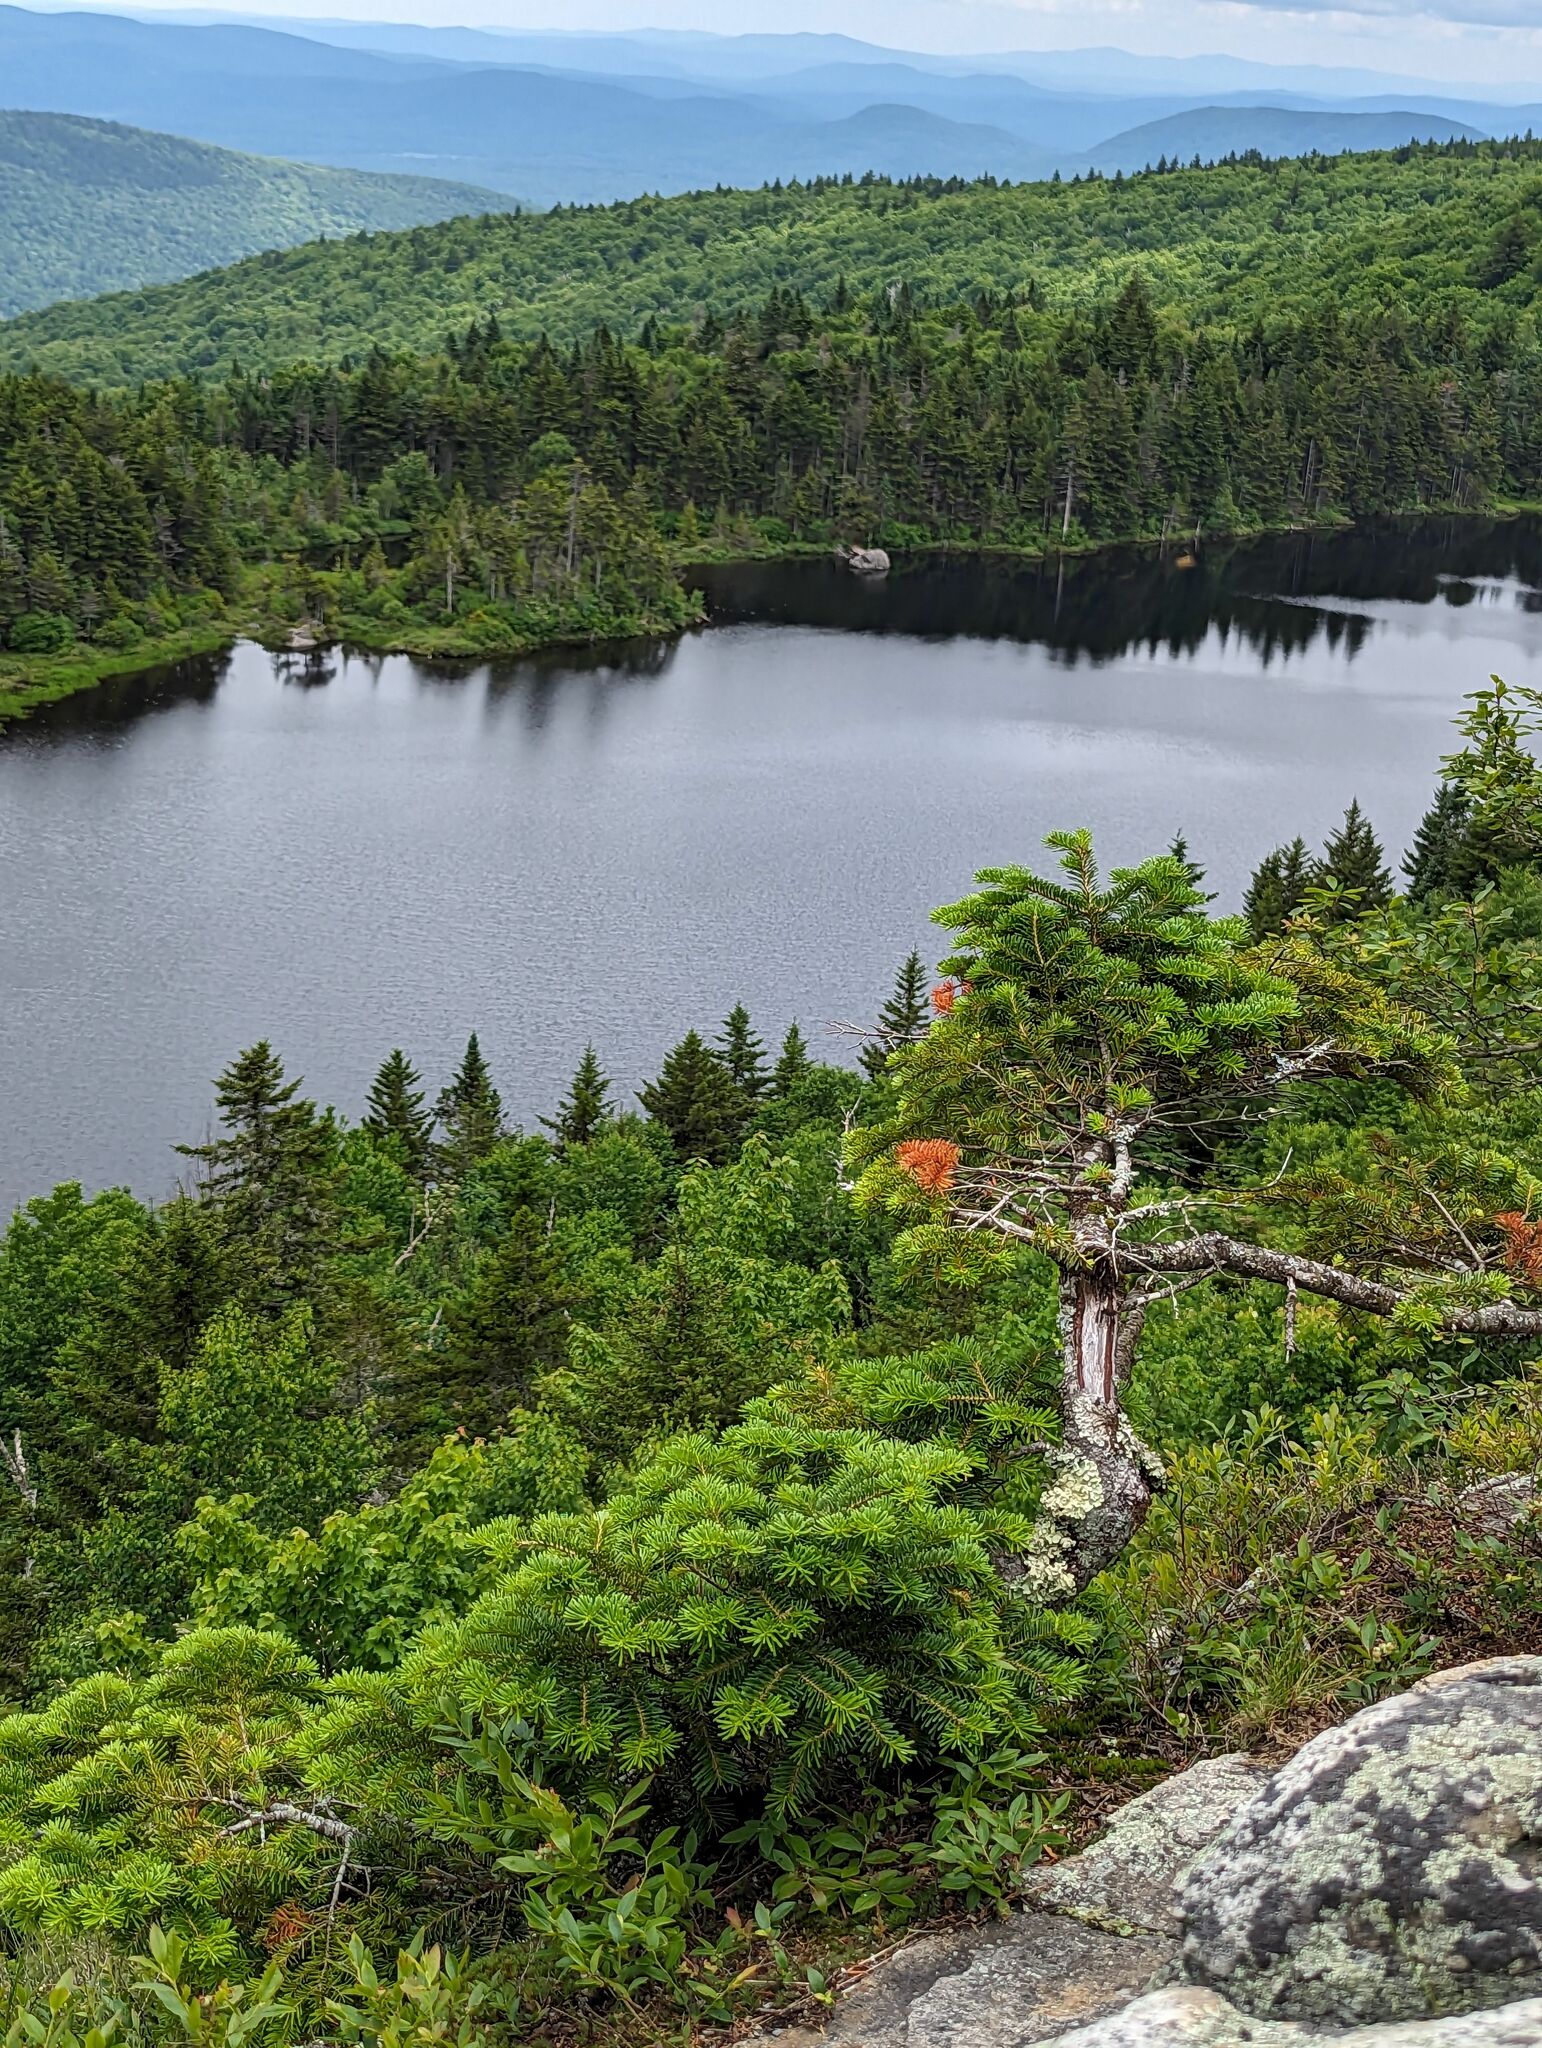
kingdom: Plantae
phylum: Tracheophyta
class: Pinopsida
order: Pinales
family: Pinaceae
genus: Abies
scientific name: Abies balsamea
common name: Balsam fir
